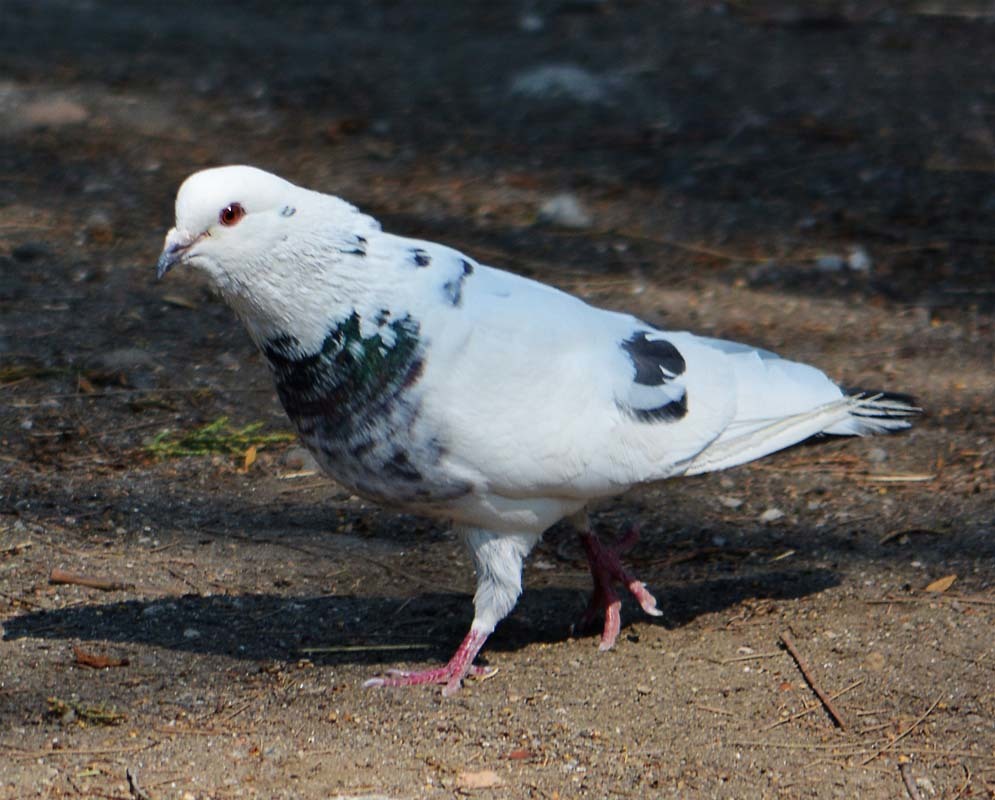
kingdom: Animalia
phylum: Chordata
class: Aves
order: Columbiformes
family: Columbidae
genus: Columba
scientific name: Columba livia
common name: Rock pigeon
